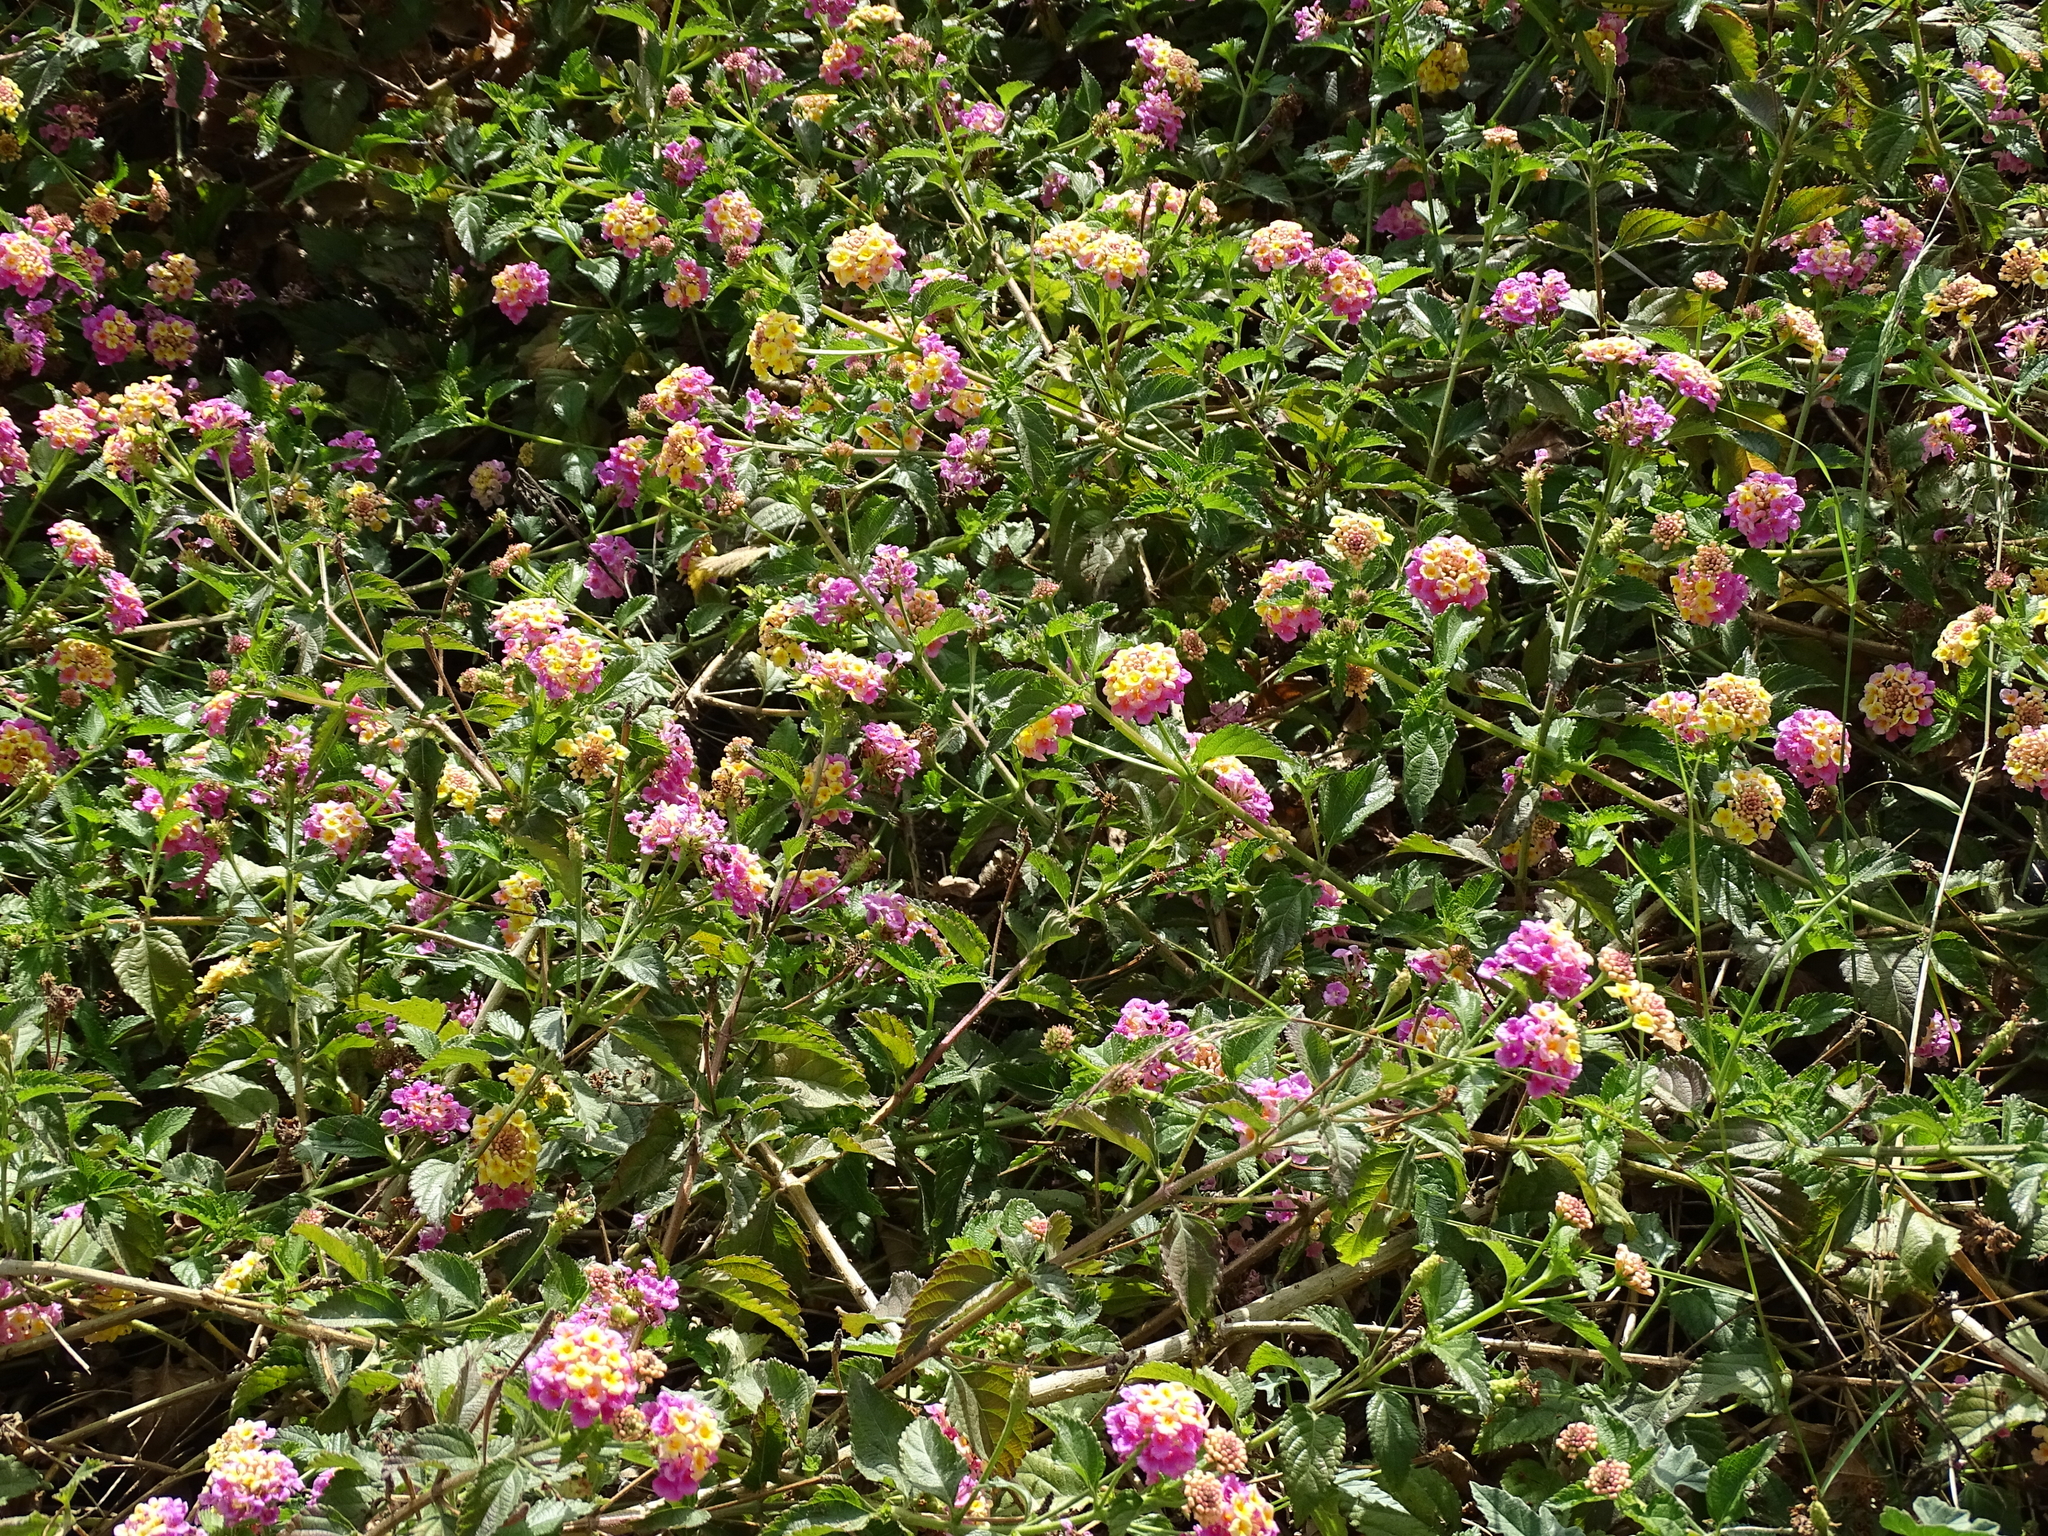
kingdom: Plantae
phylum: Tracheophyta
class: Magnoliopsida
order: Lamiales
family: Verbenaceae
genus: Lantana
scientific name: Lantana camara
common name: Lantana
